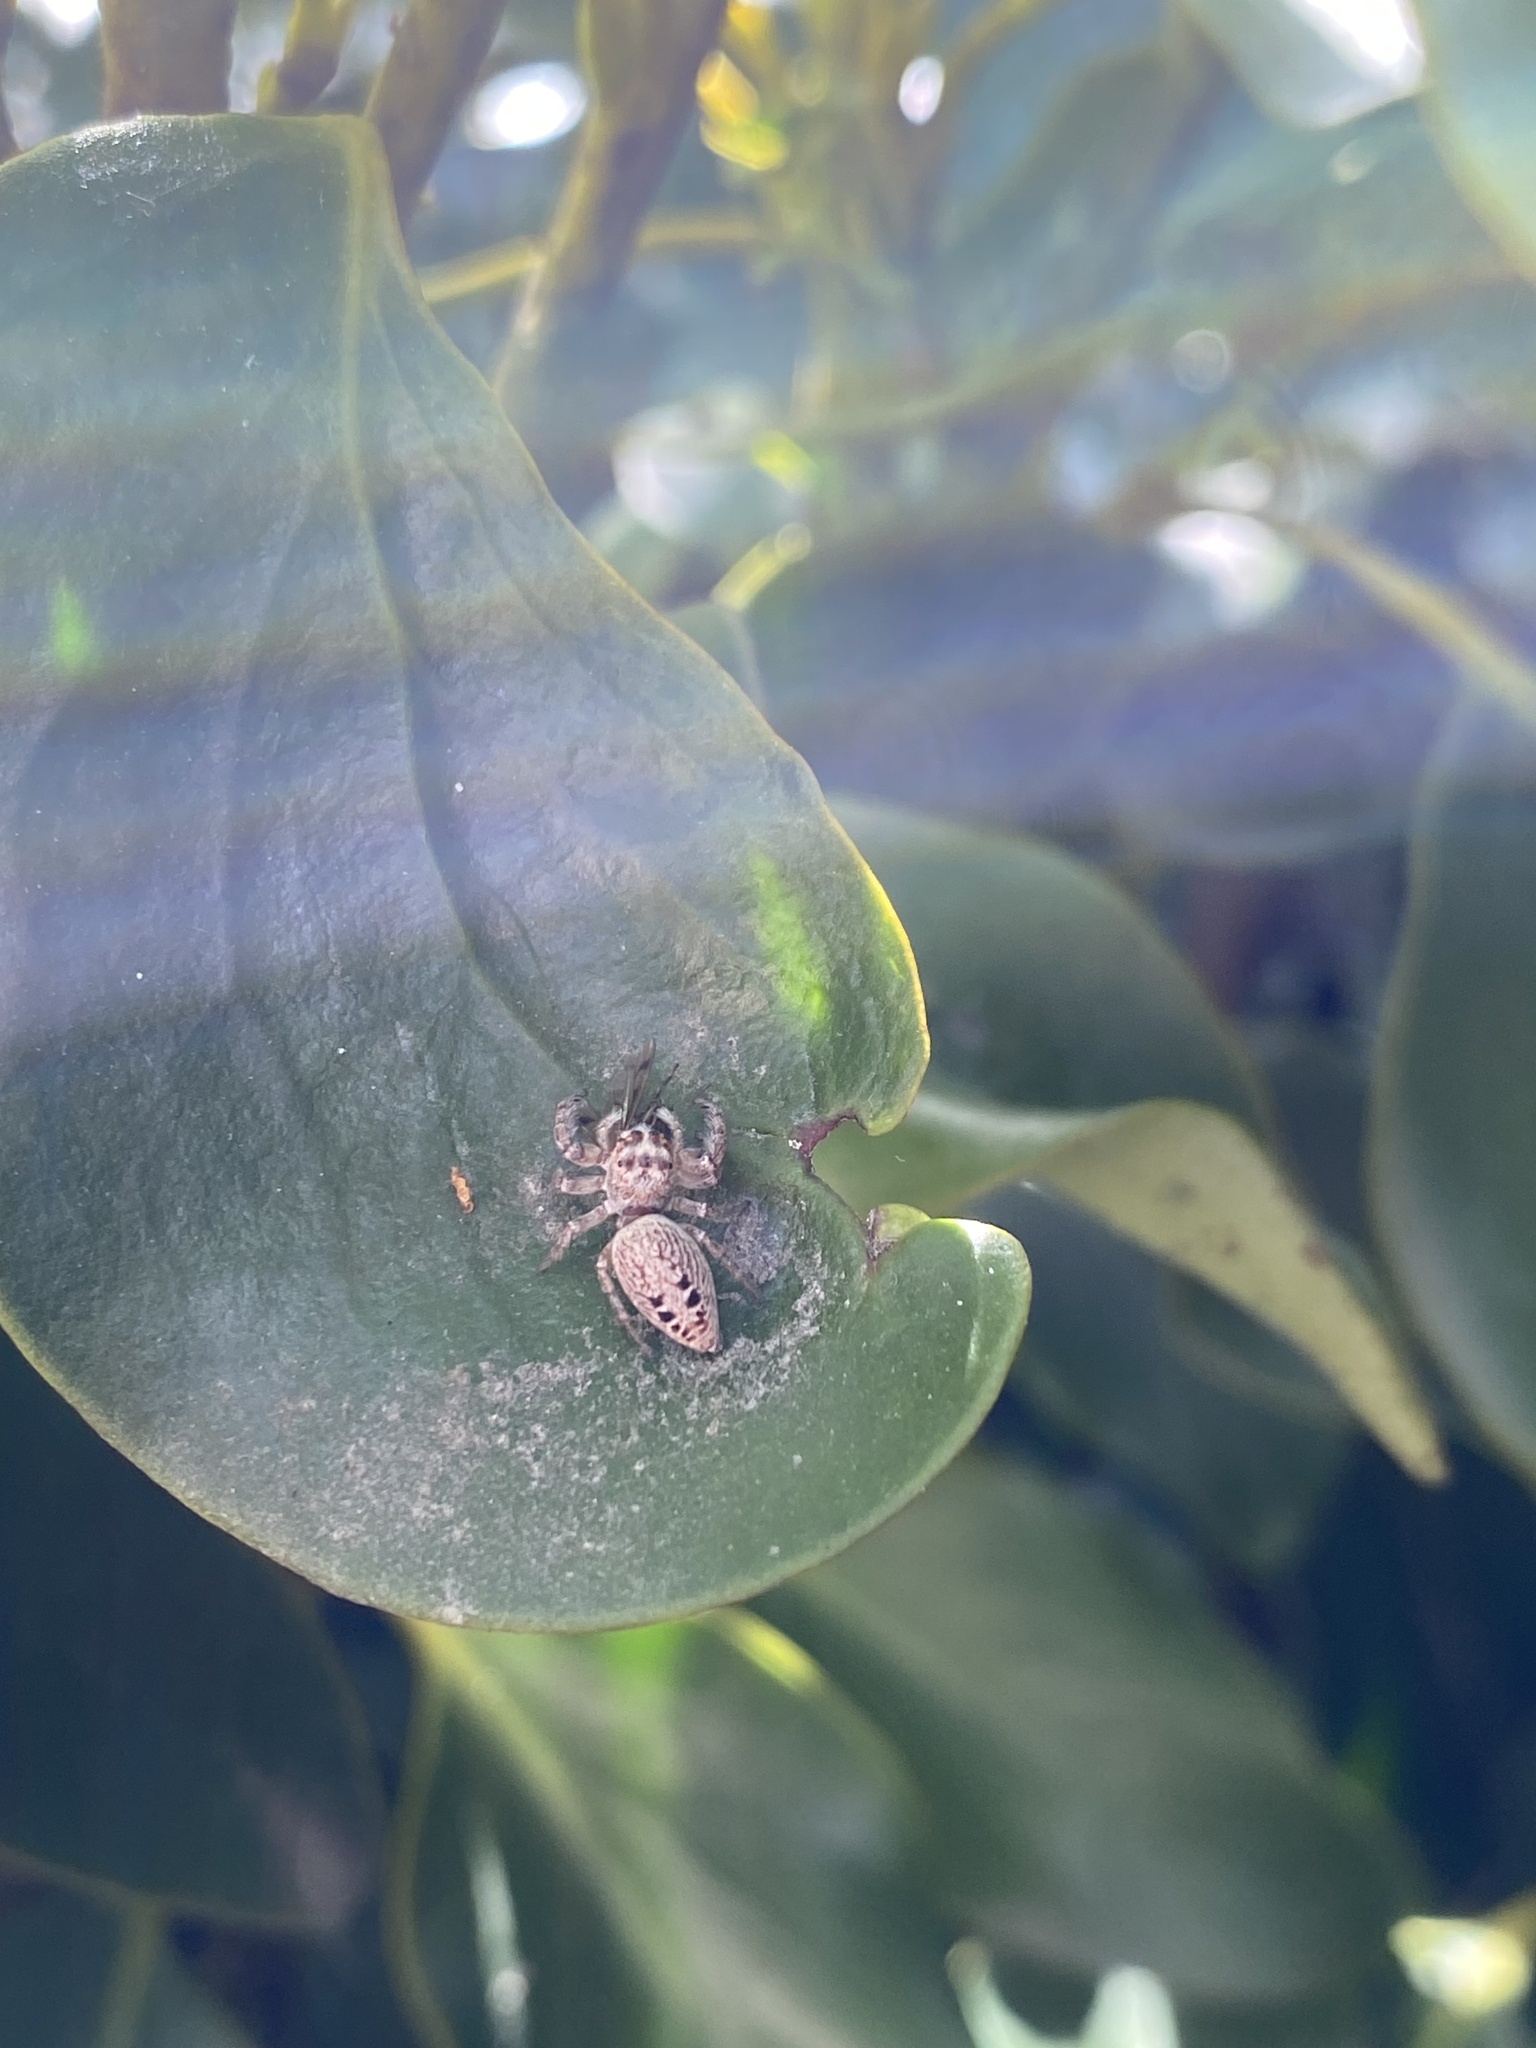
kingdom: Animalia
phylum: Arthropoda
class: Arachnida
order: Araneae
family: Salticidae
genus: Opisthoncus
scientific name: Opisthoncus polyphemus
